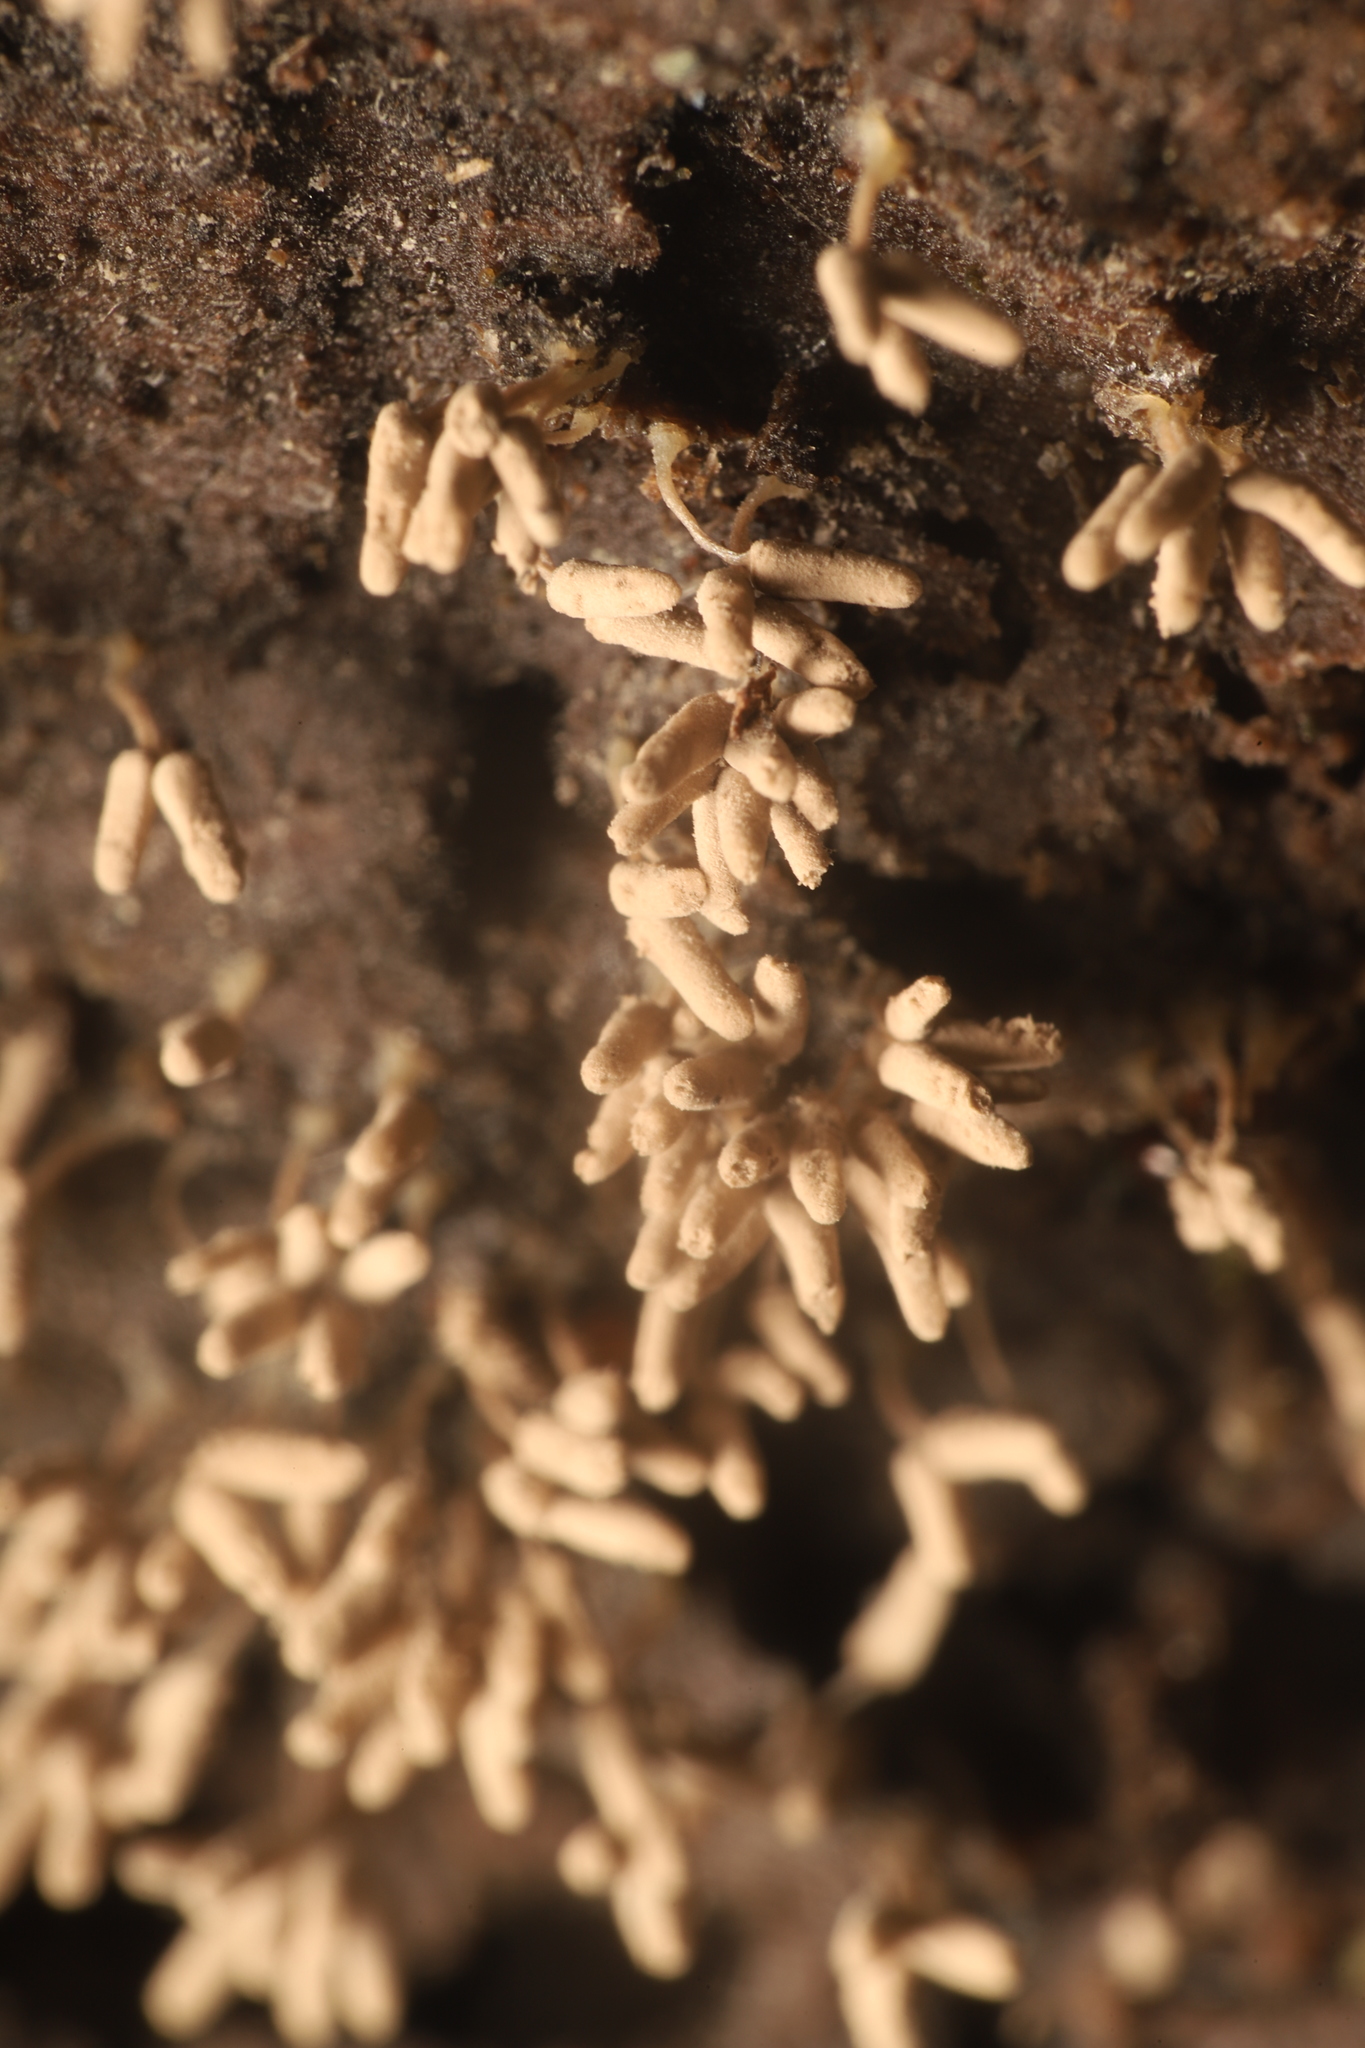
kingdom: Protozoa
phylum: Mycetozoa
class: Myxomycetes
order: Trichiales
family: Arcyriaceae
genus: Arcyria
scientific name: Arcyria cinerea
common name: White carnival candy slime mold
